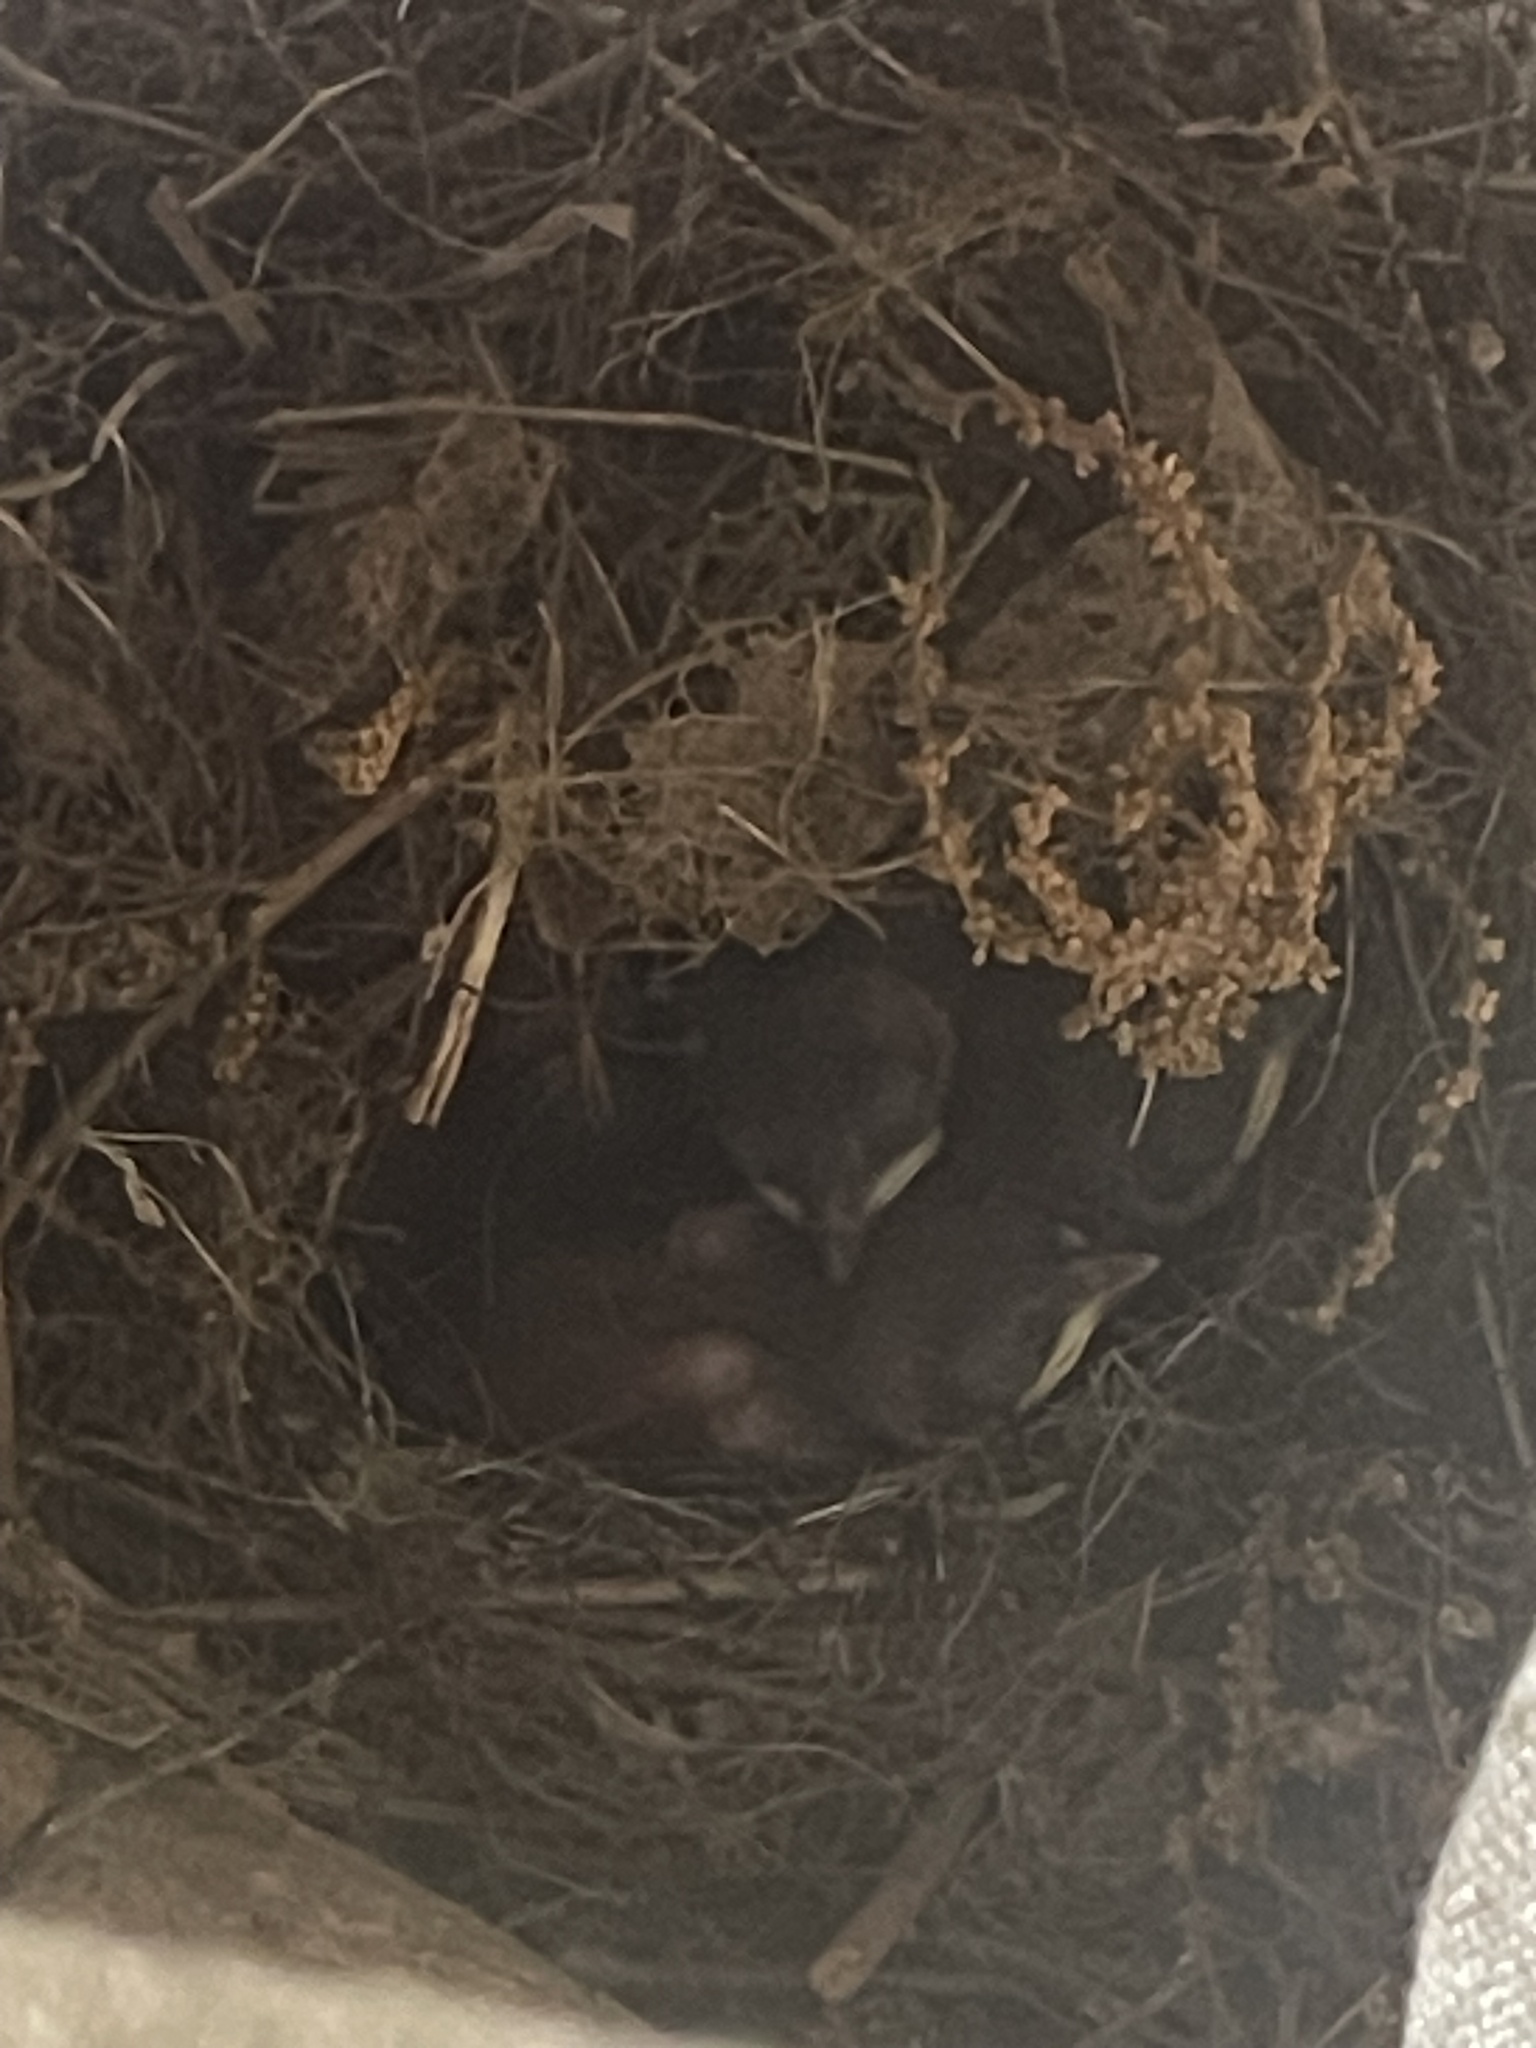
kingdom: Animalia
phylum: Chordata
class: Aves
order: Passeriformes
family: Troglodytidae
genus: Thryothorus
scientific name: Thryothorus ludovicianus
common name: Carolina wren
